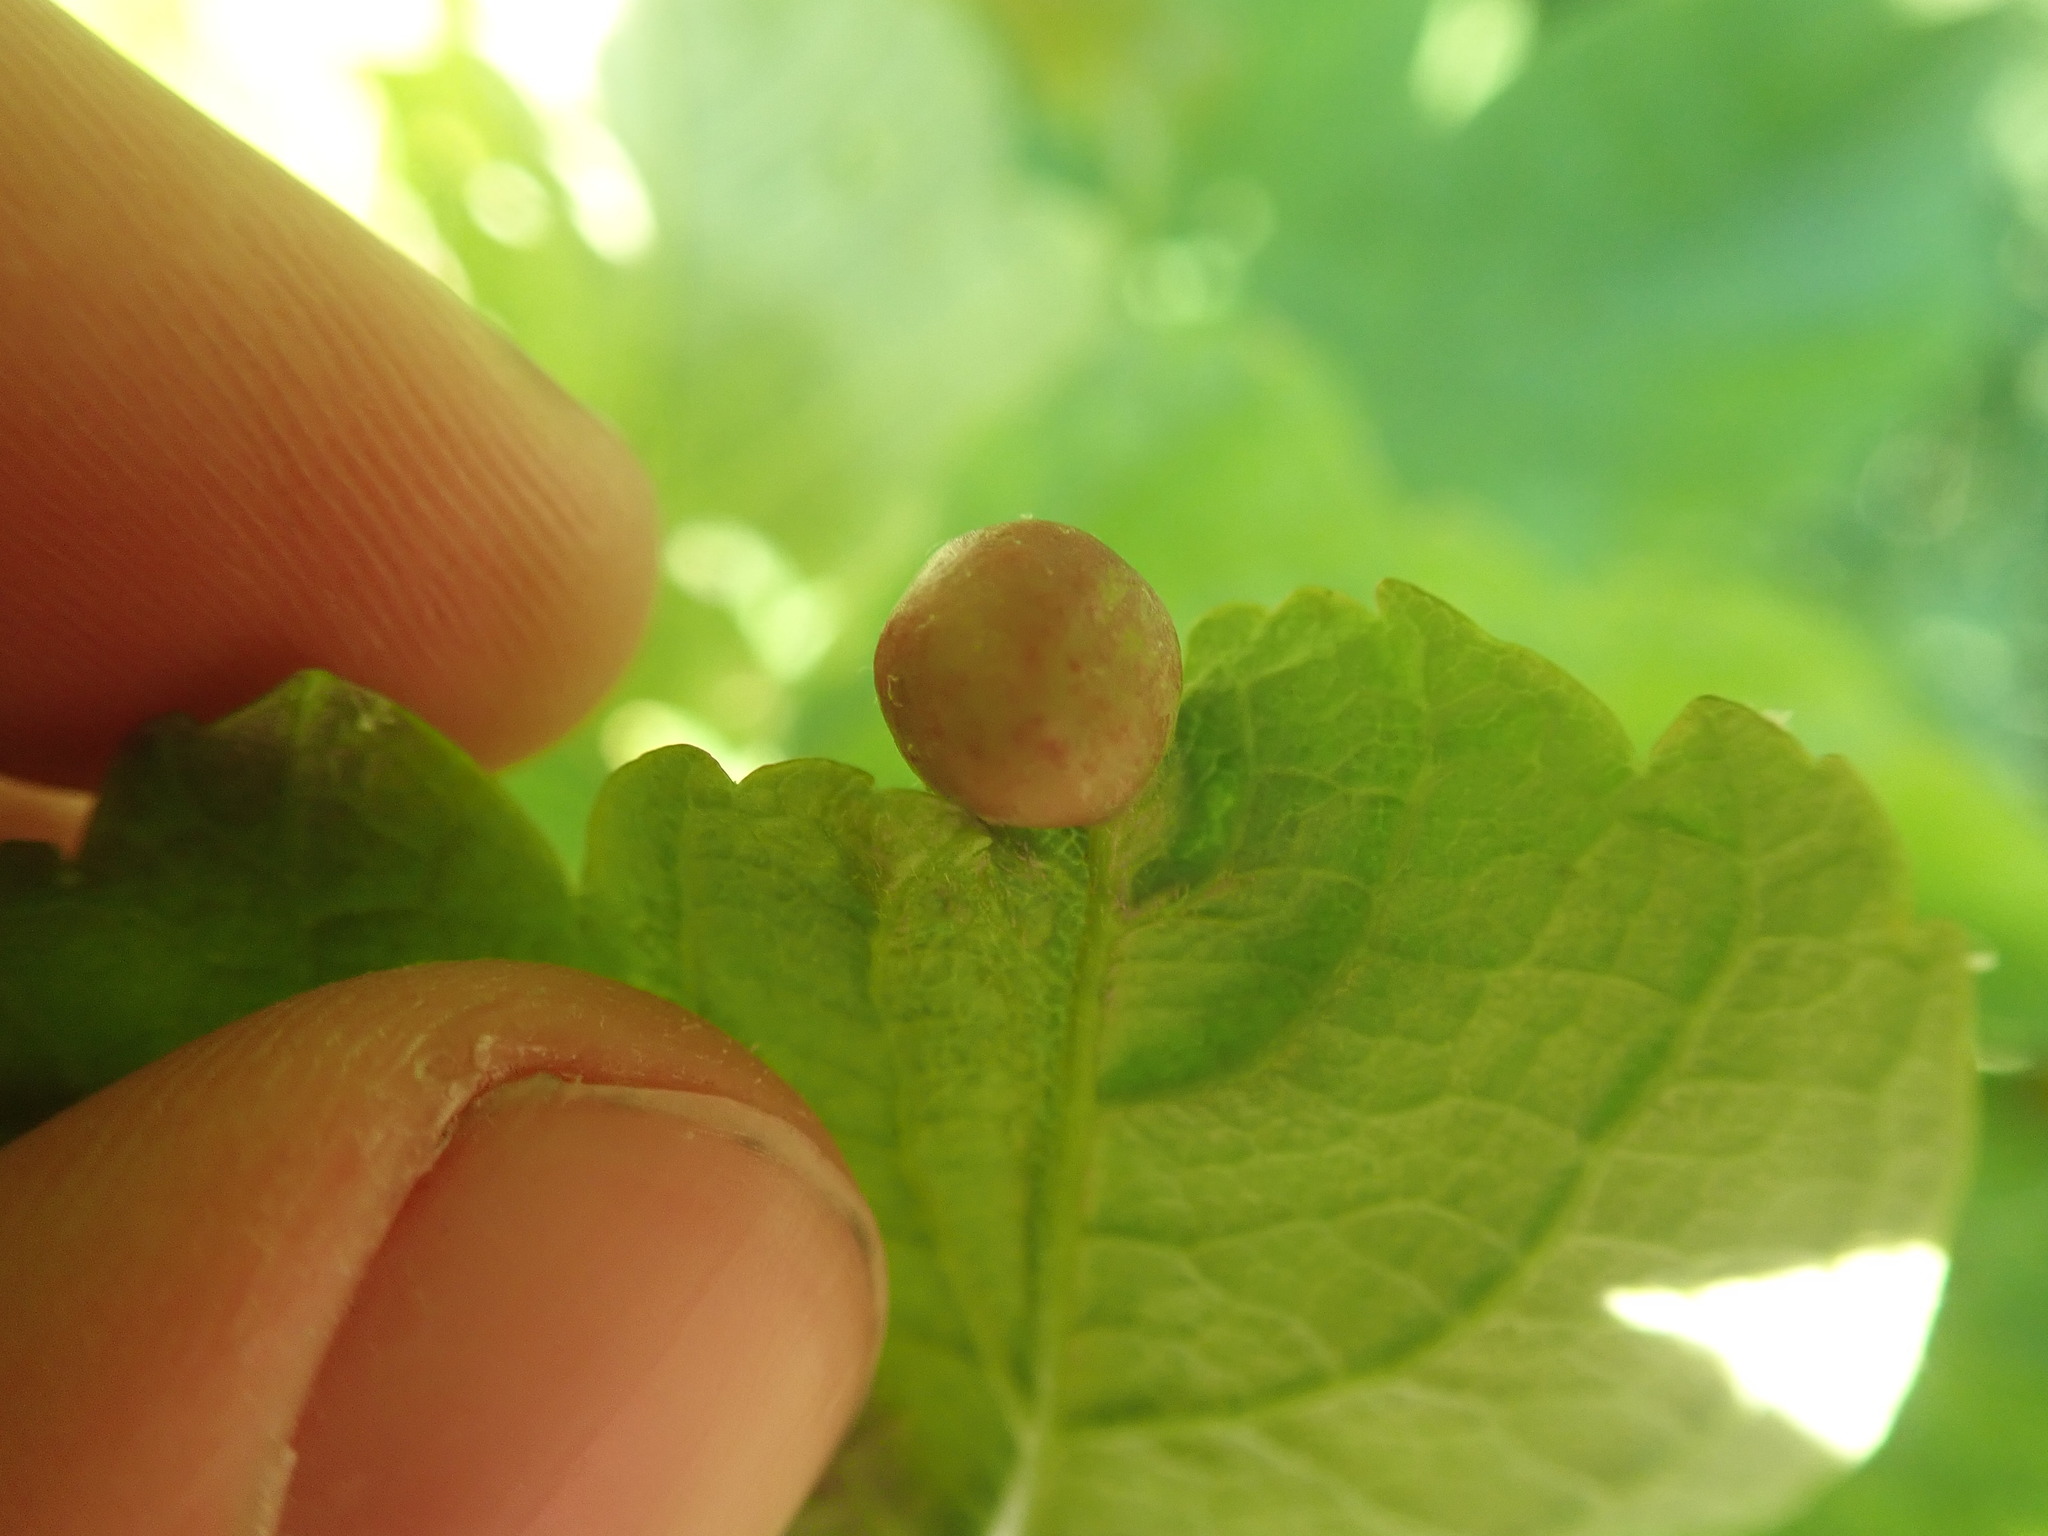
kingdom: Animalia
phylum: Arthropoda
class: Insecta
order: Hymenoptera
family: Cynipidae
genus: Pediaspis
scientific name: Pediaspis aceris
